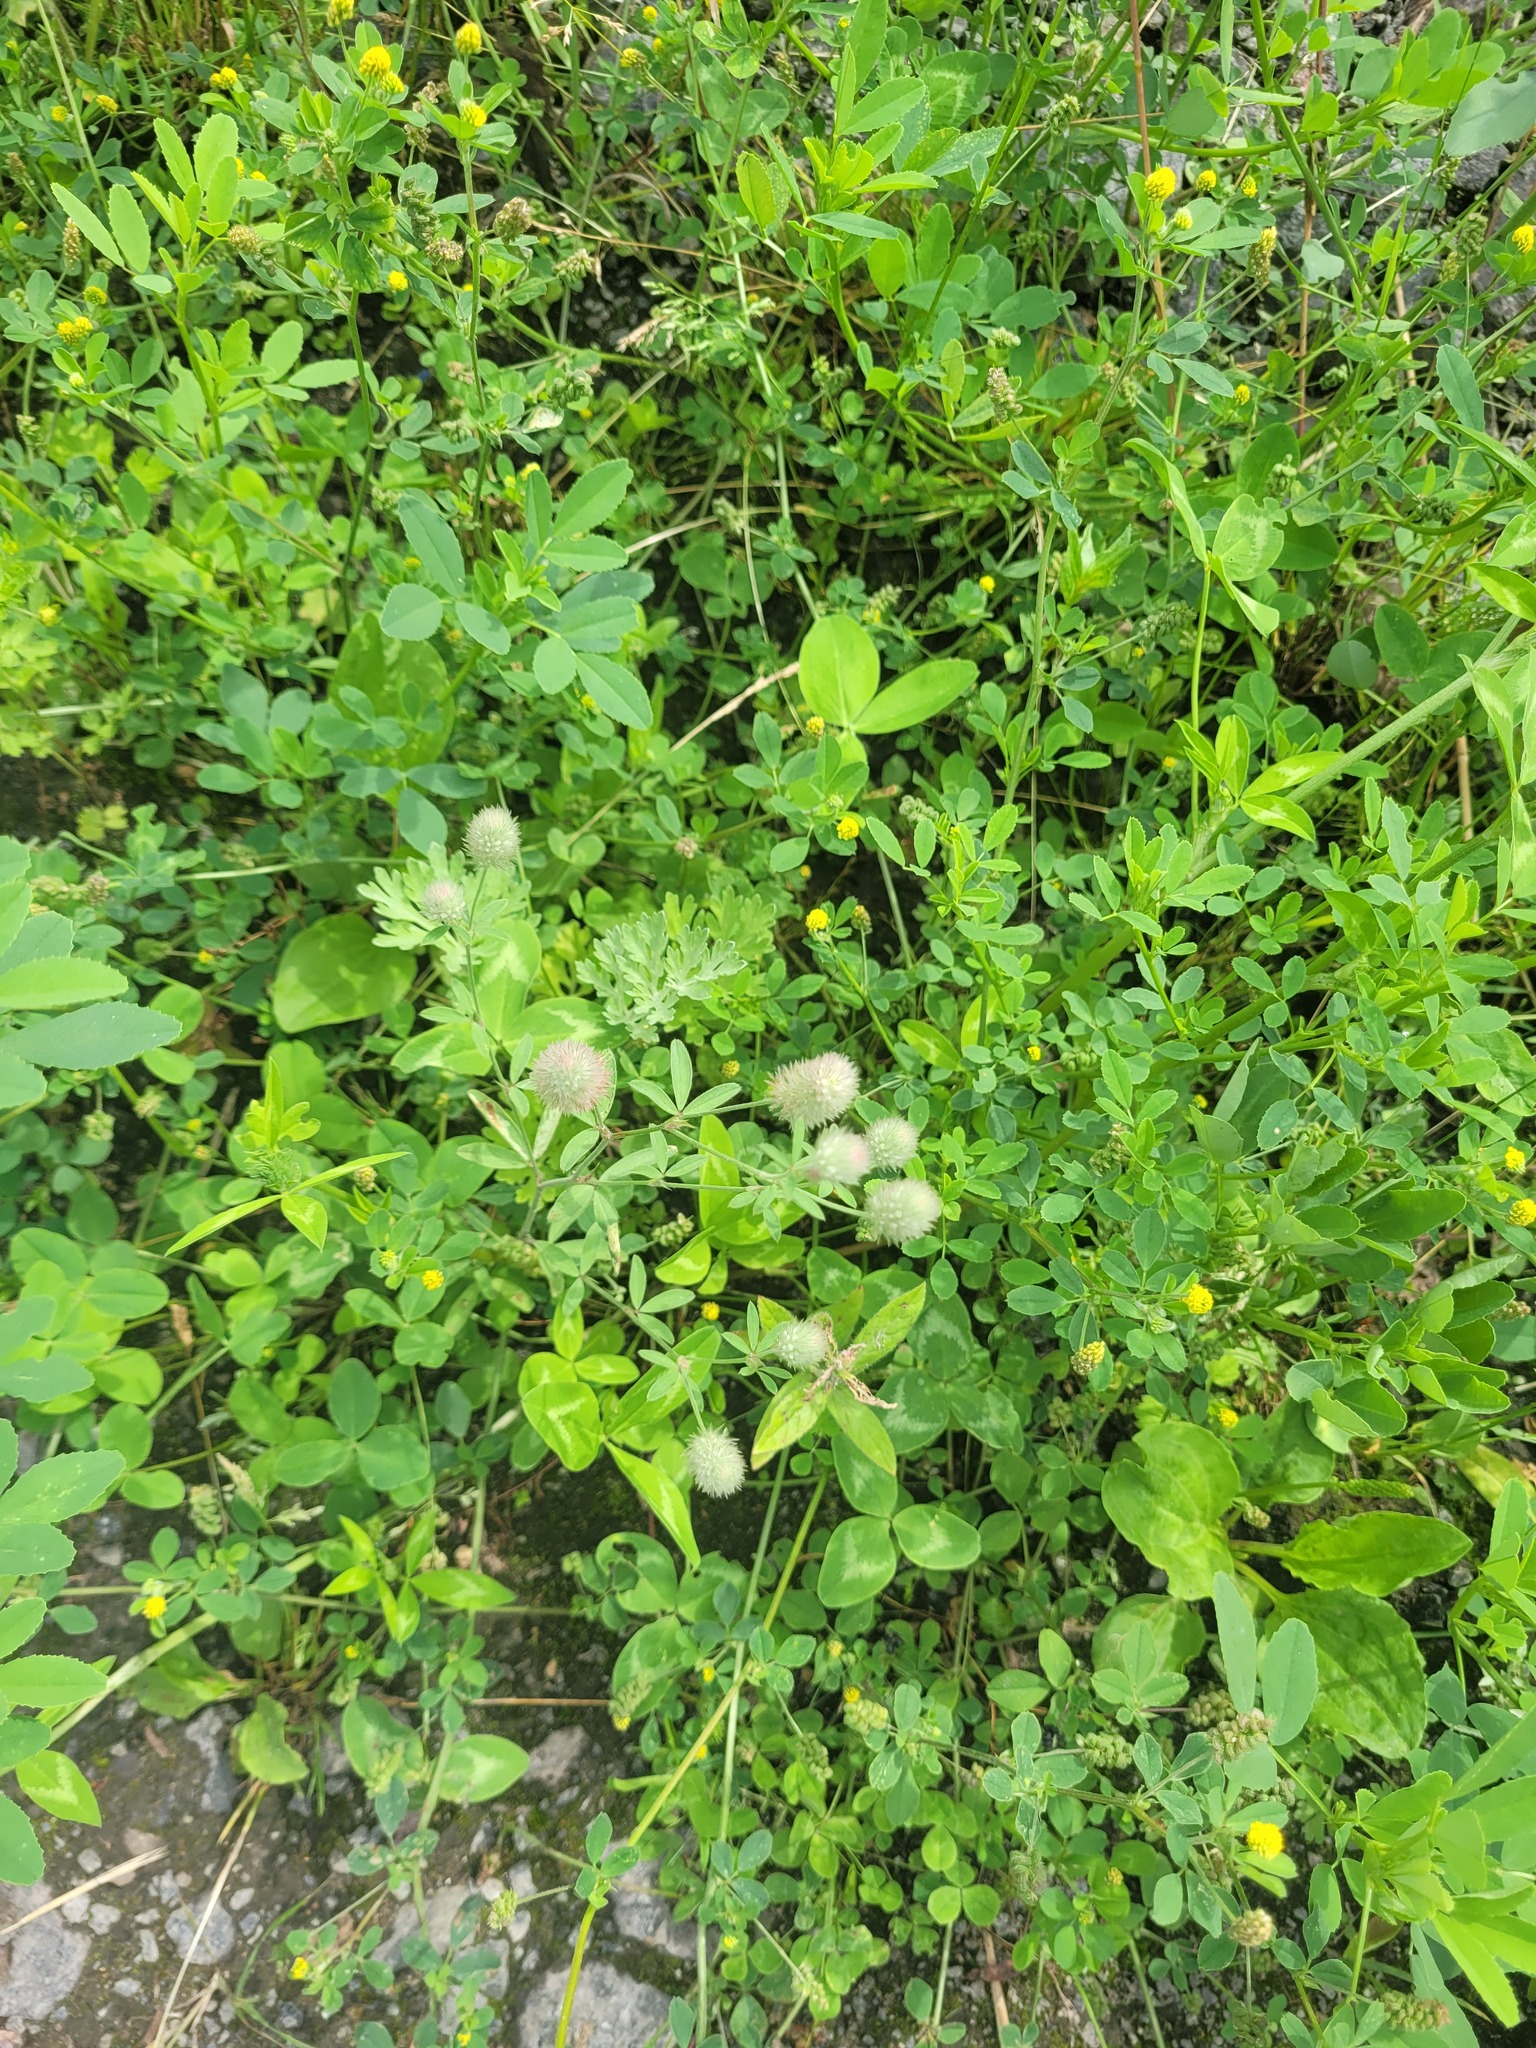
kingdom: Plantae
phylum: Tracheophyta
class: Magnoliopsida
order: Fabales
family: Fabaceae
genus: Trifolium
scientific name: Trifolium arvense
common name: Hare's-foot clover
